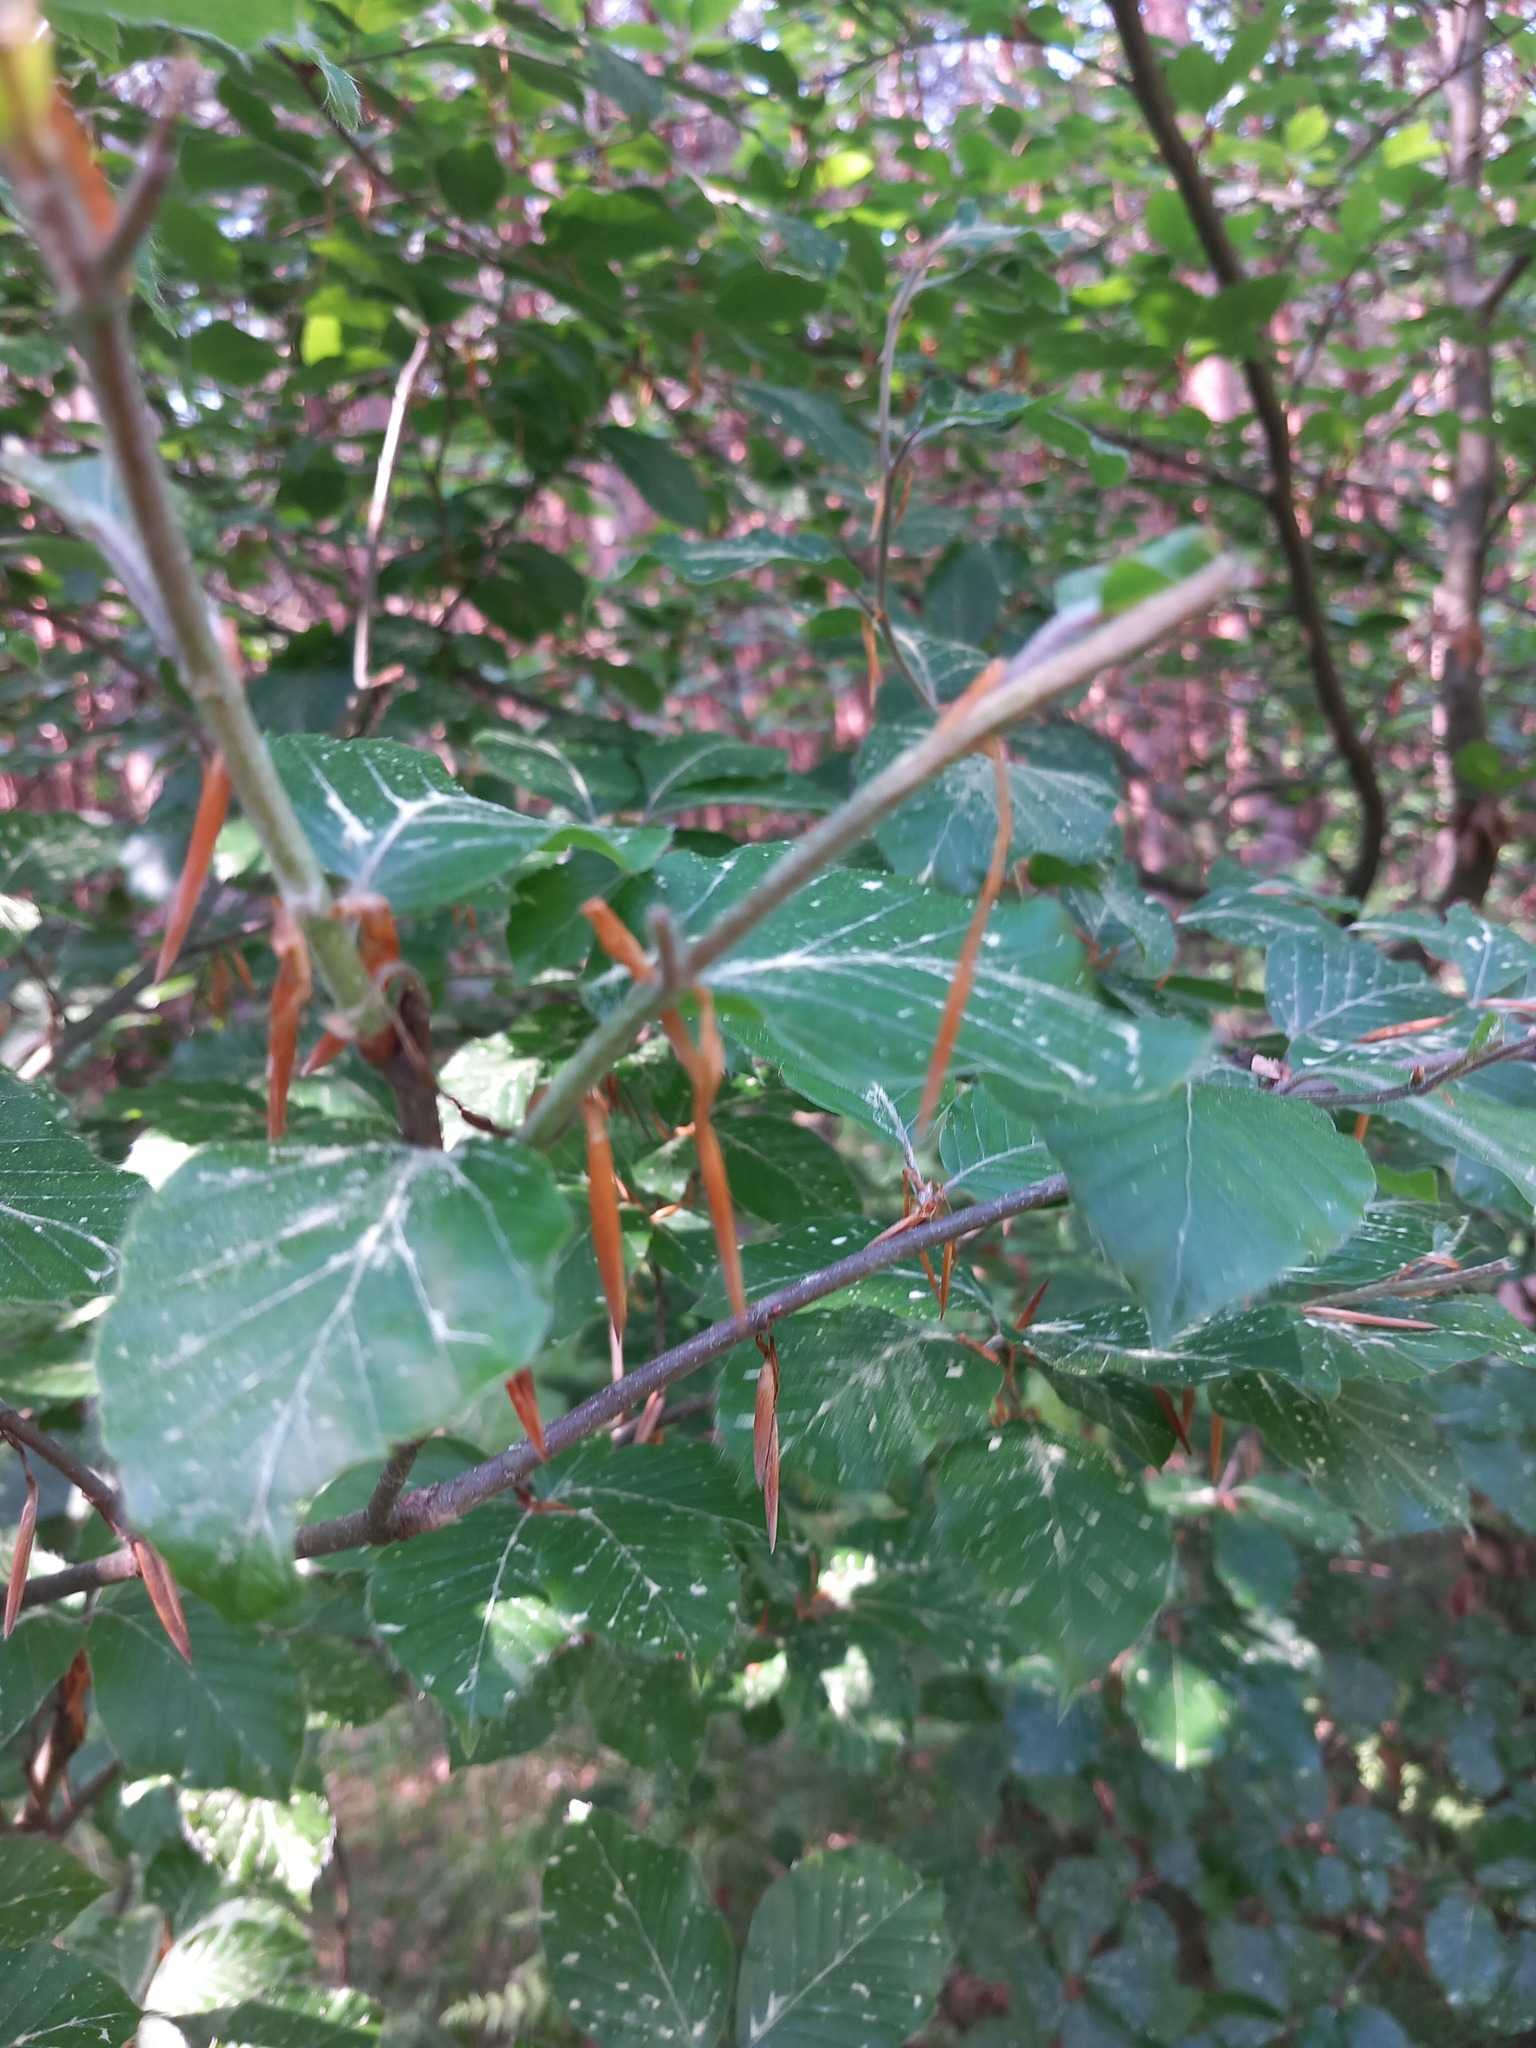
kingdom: Plantae
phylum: Tracheophyta
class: Magnoliopsida
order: Fagales
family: Fagaceae
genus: Fagus
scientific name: Fagus sylvatica
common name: Beech
